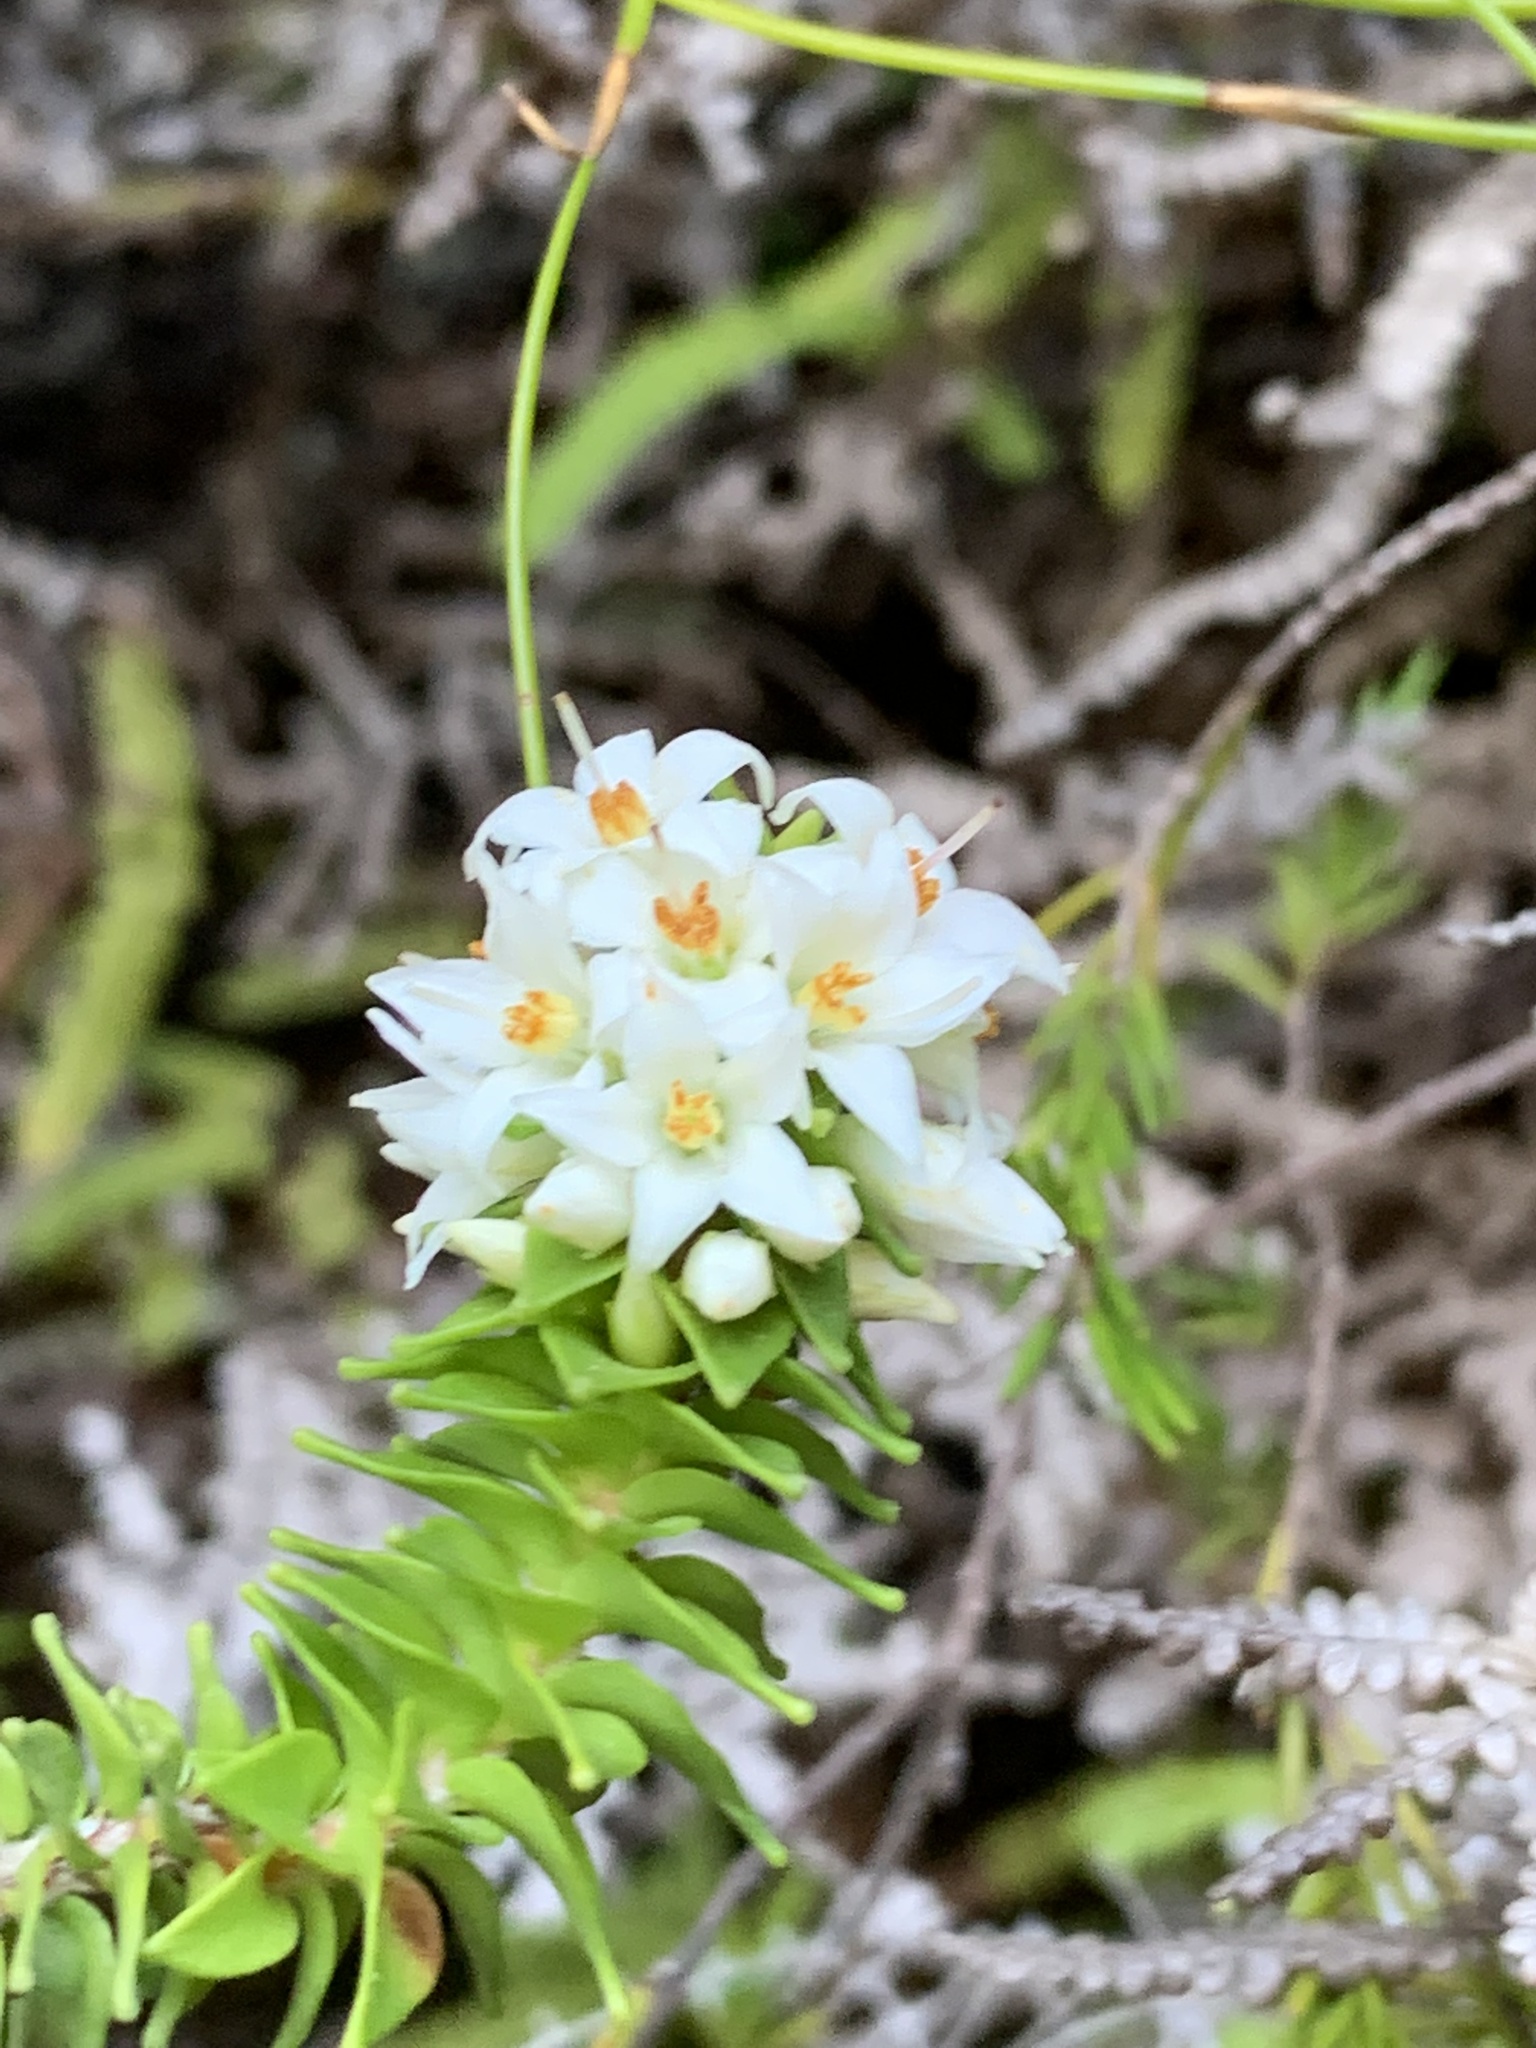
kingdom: Plantae
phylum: Tracheophyta
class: Magnoliopsida
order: Ericales
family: Ericaceae
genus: Epacris
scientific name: Epacris apiculata
